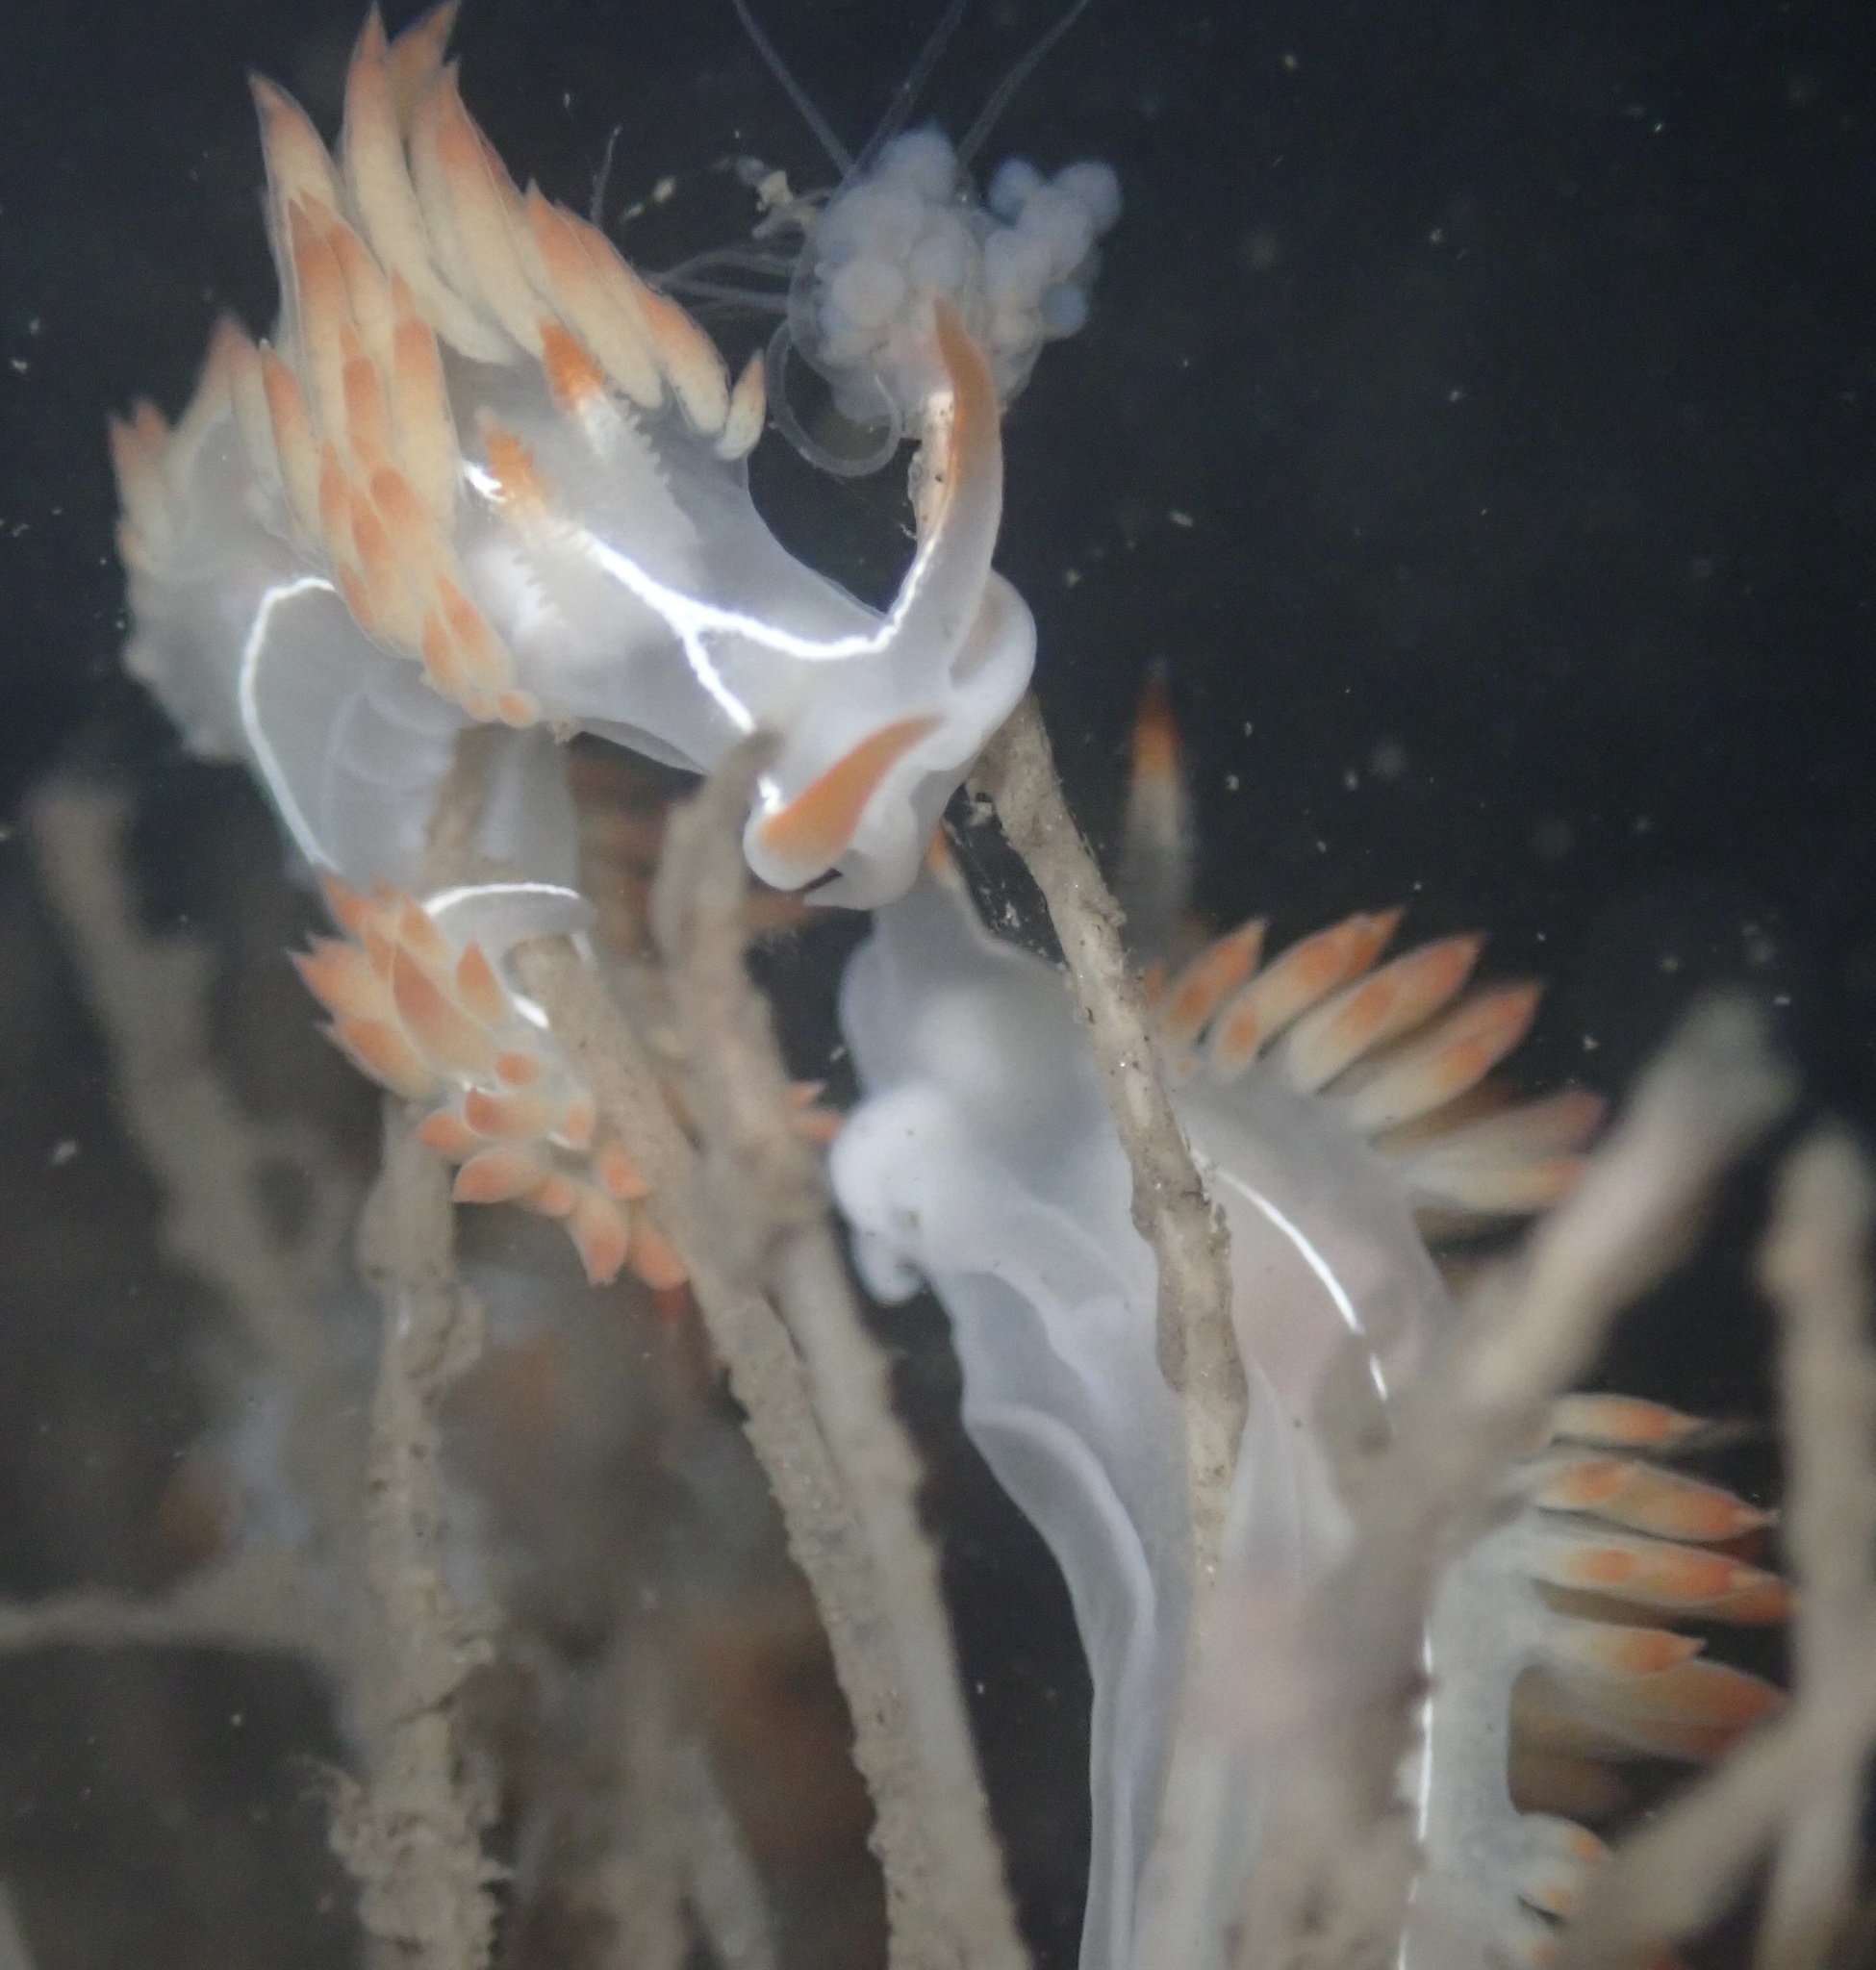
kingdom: Animalia
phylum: Mollusca
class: Gastropoda
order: Nudibranchia
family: Coryphellidae
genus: Coryphella
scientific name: Coryphella trilineata
